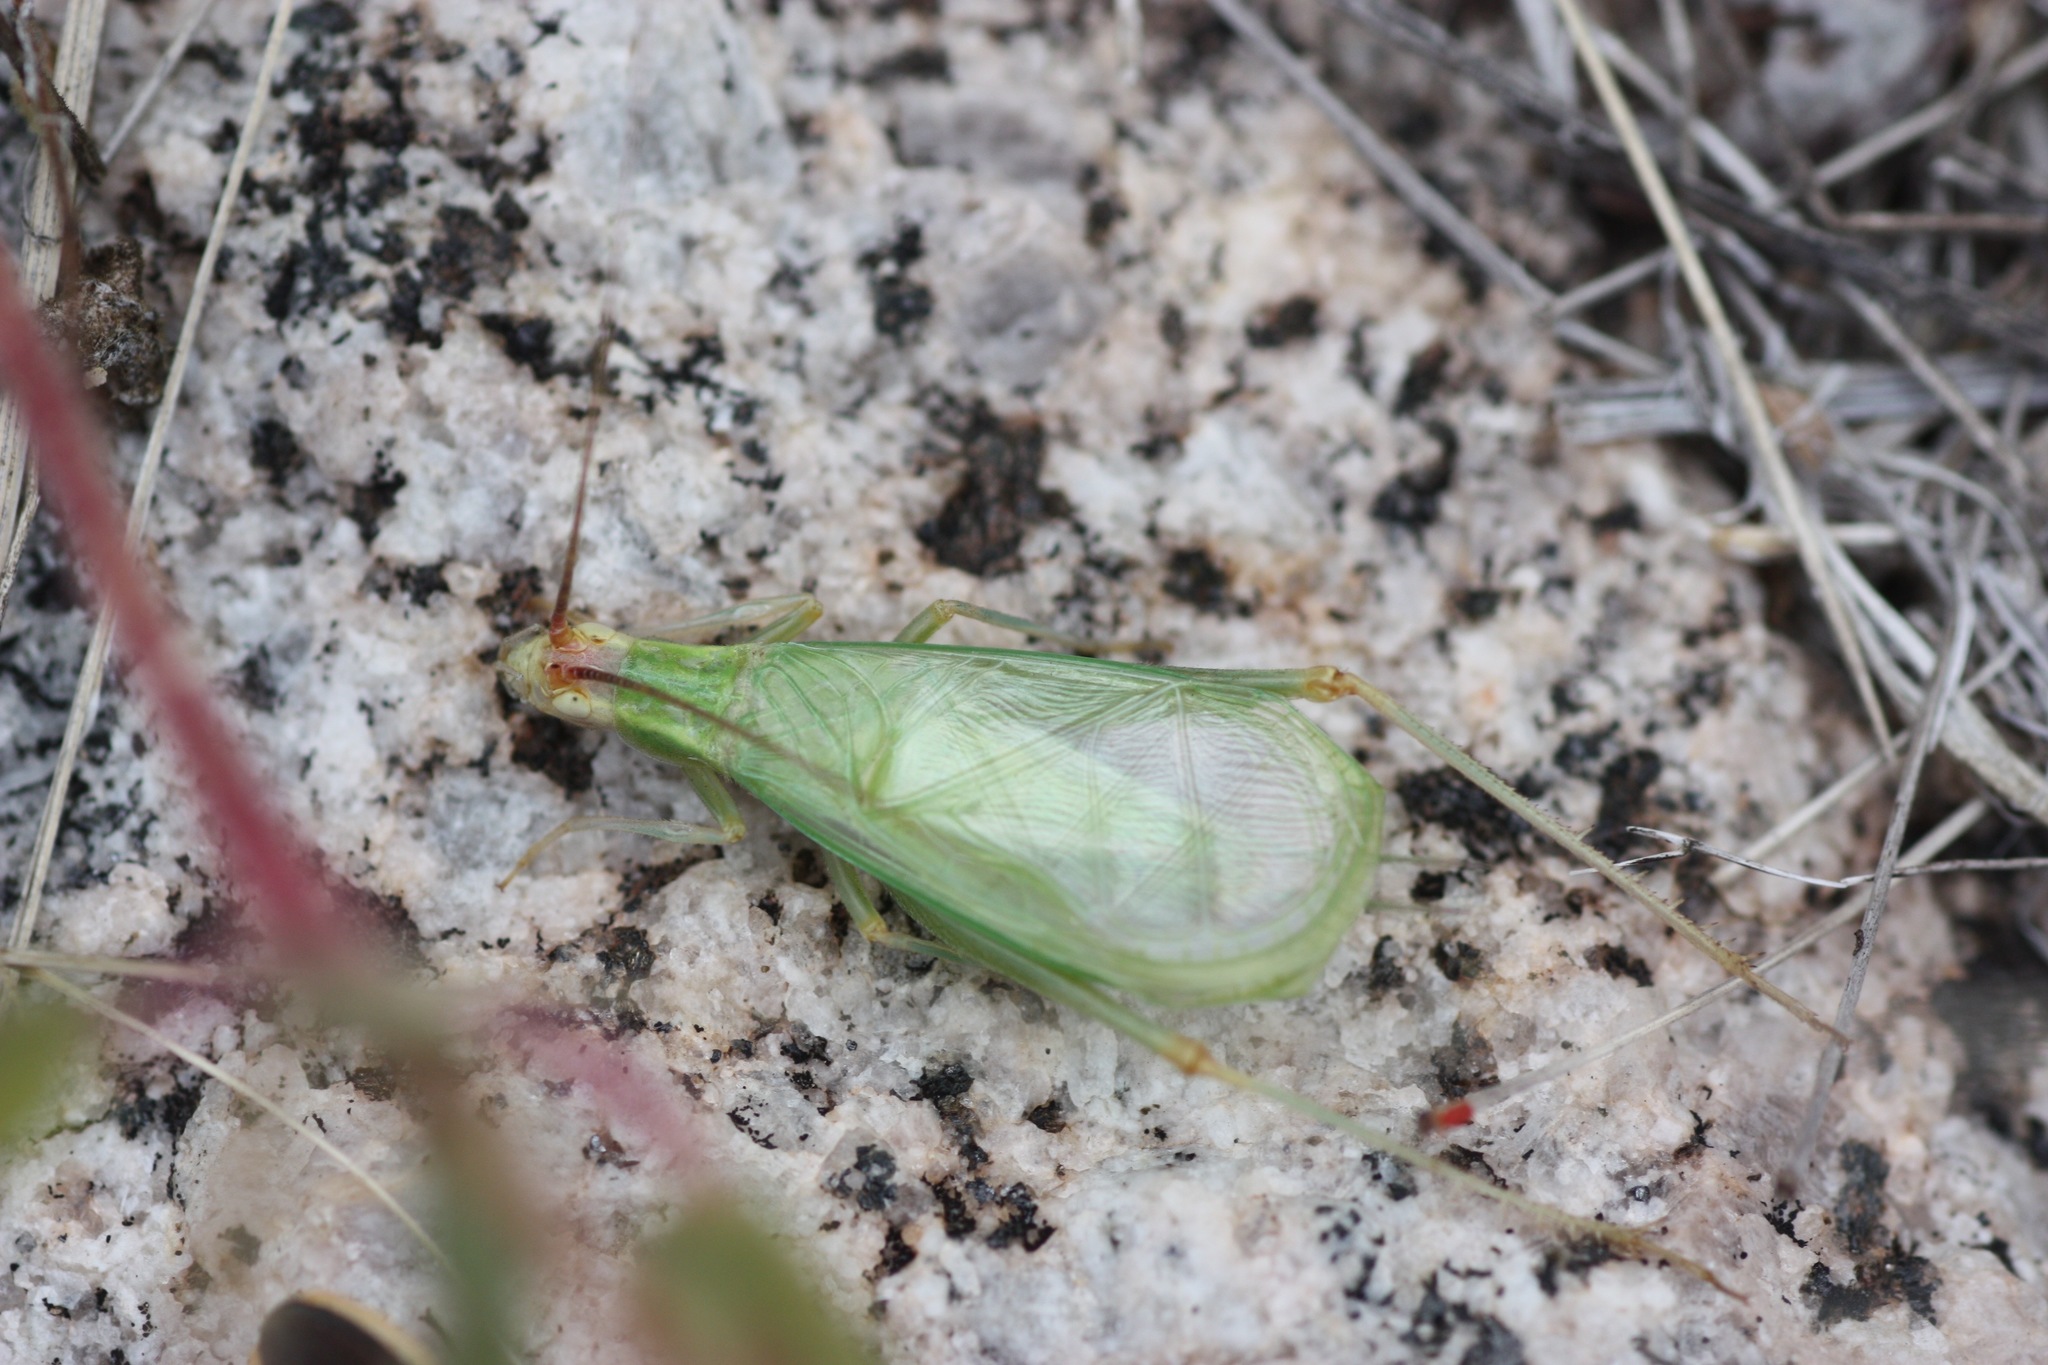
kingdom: Animalia
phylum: Arthropoda
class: Insecta
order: Orthoptera
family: Gryllidae
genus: Oecanthus
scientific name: Oecanthus texensis
